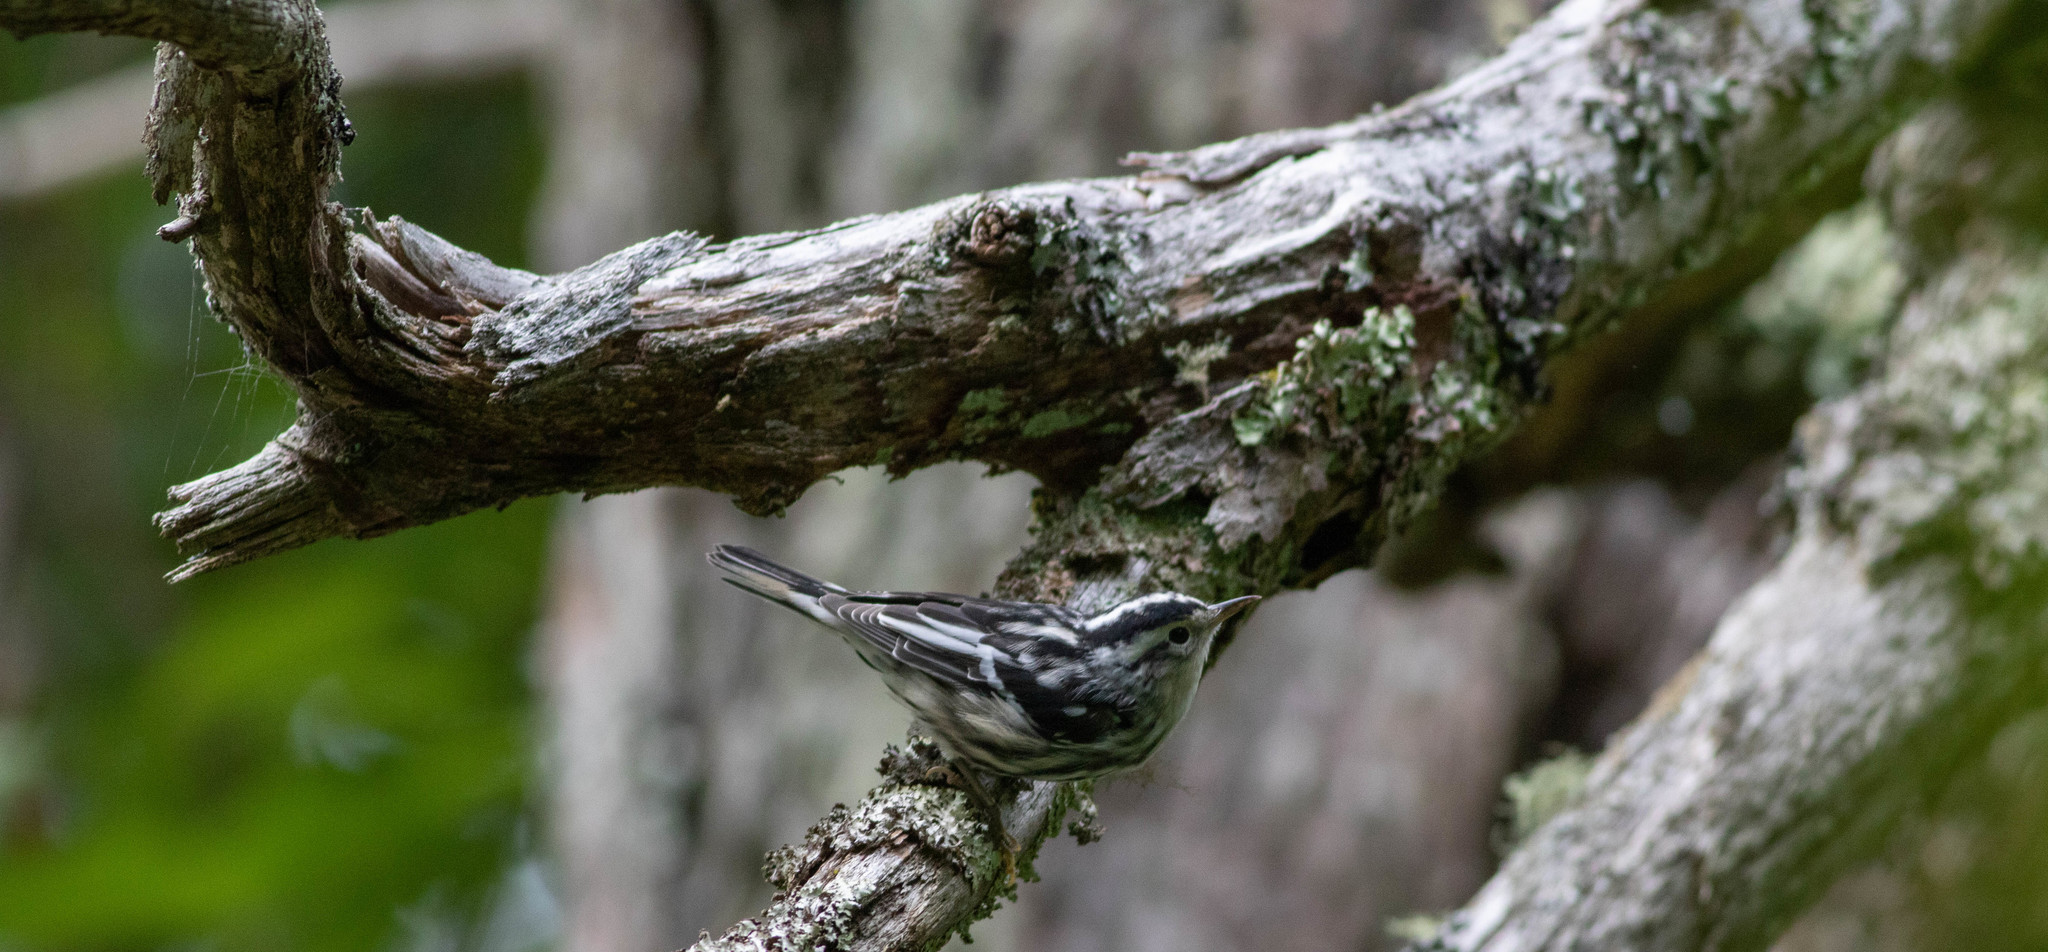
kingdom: Animalia
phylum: Chordata
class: Aves
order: Passeriformes
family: Parulidae
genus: Mniotilta
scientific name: Mniotilta varia
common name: Black-and-white warbler
